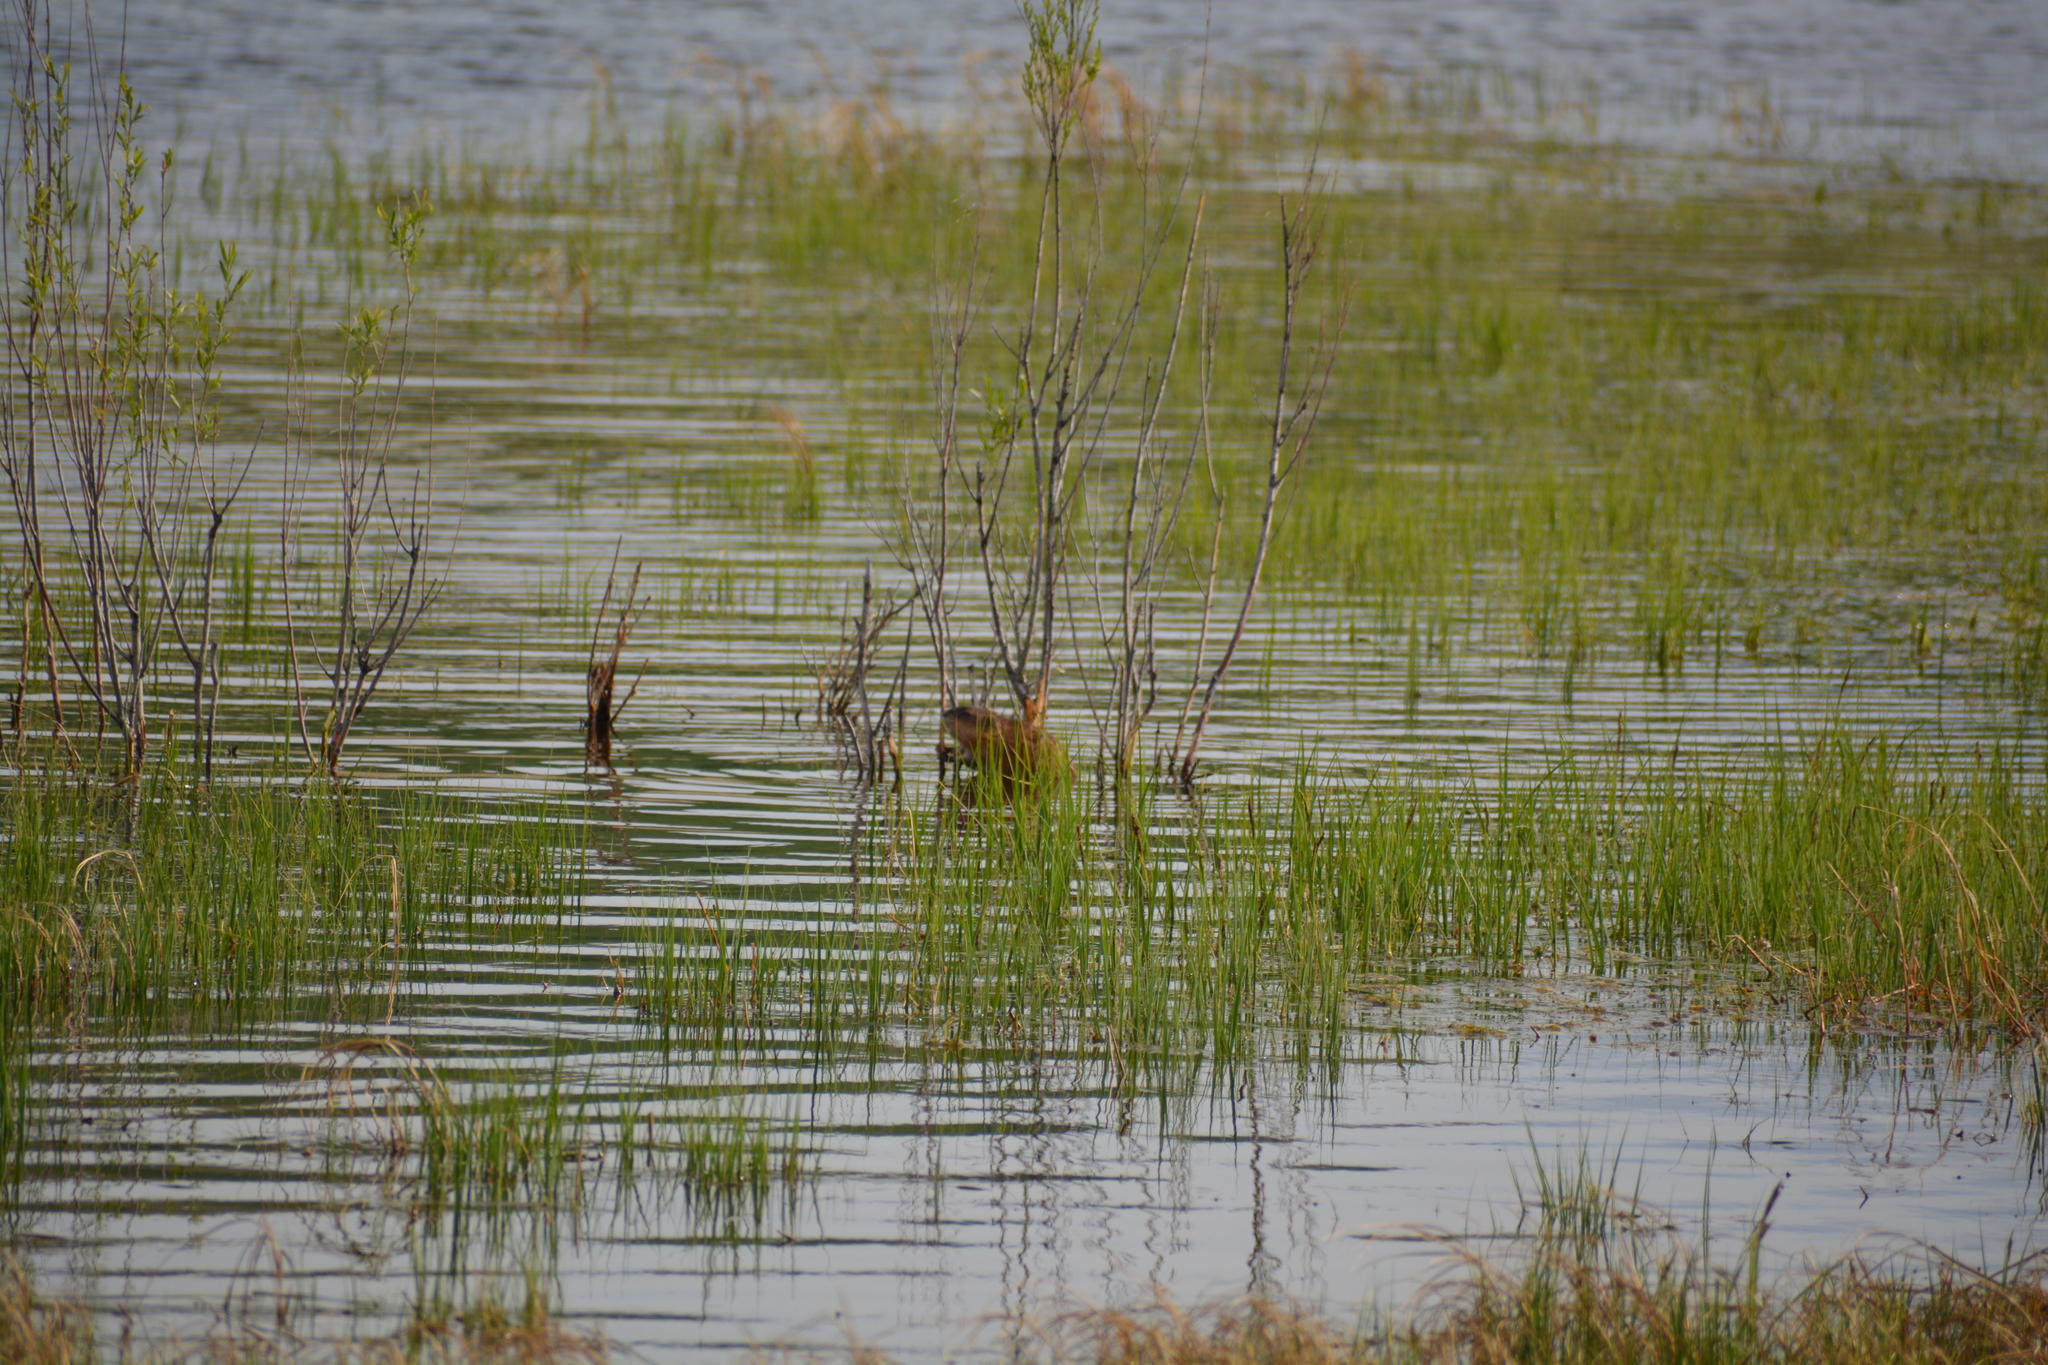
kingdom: Animalia
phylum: Chordata
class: Mammalia
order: Rodentia
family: Cricetidae
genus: Ondatra
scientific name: Ondatra zibethicus
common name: Muskrat
